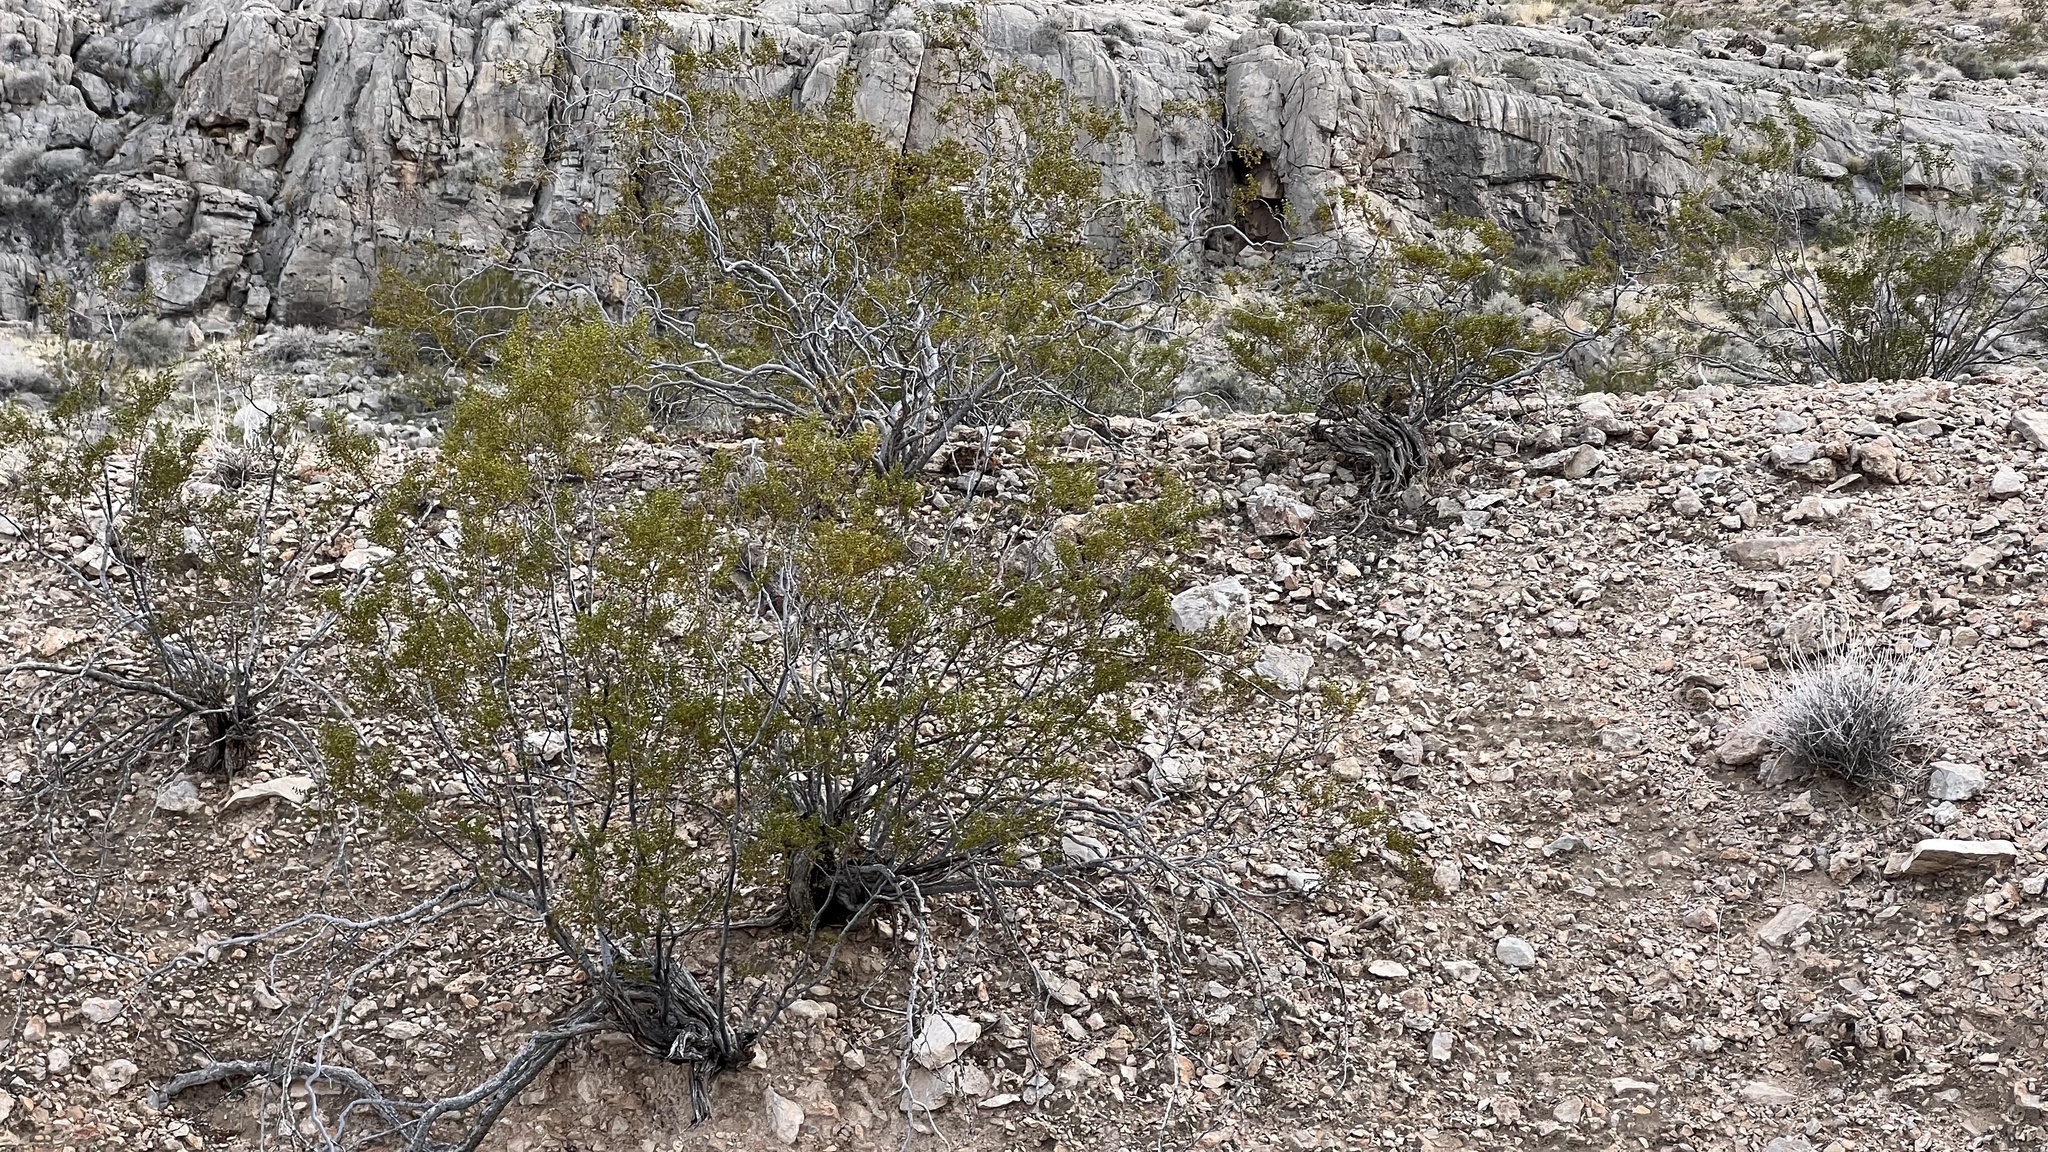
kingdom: Plantae
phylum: Tracheophyta
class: Magnoliopsida
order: Zygophyllales
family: Zygophyllaceae
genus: Larrea
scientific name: Larrea tridentata
